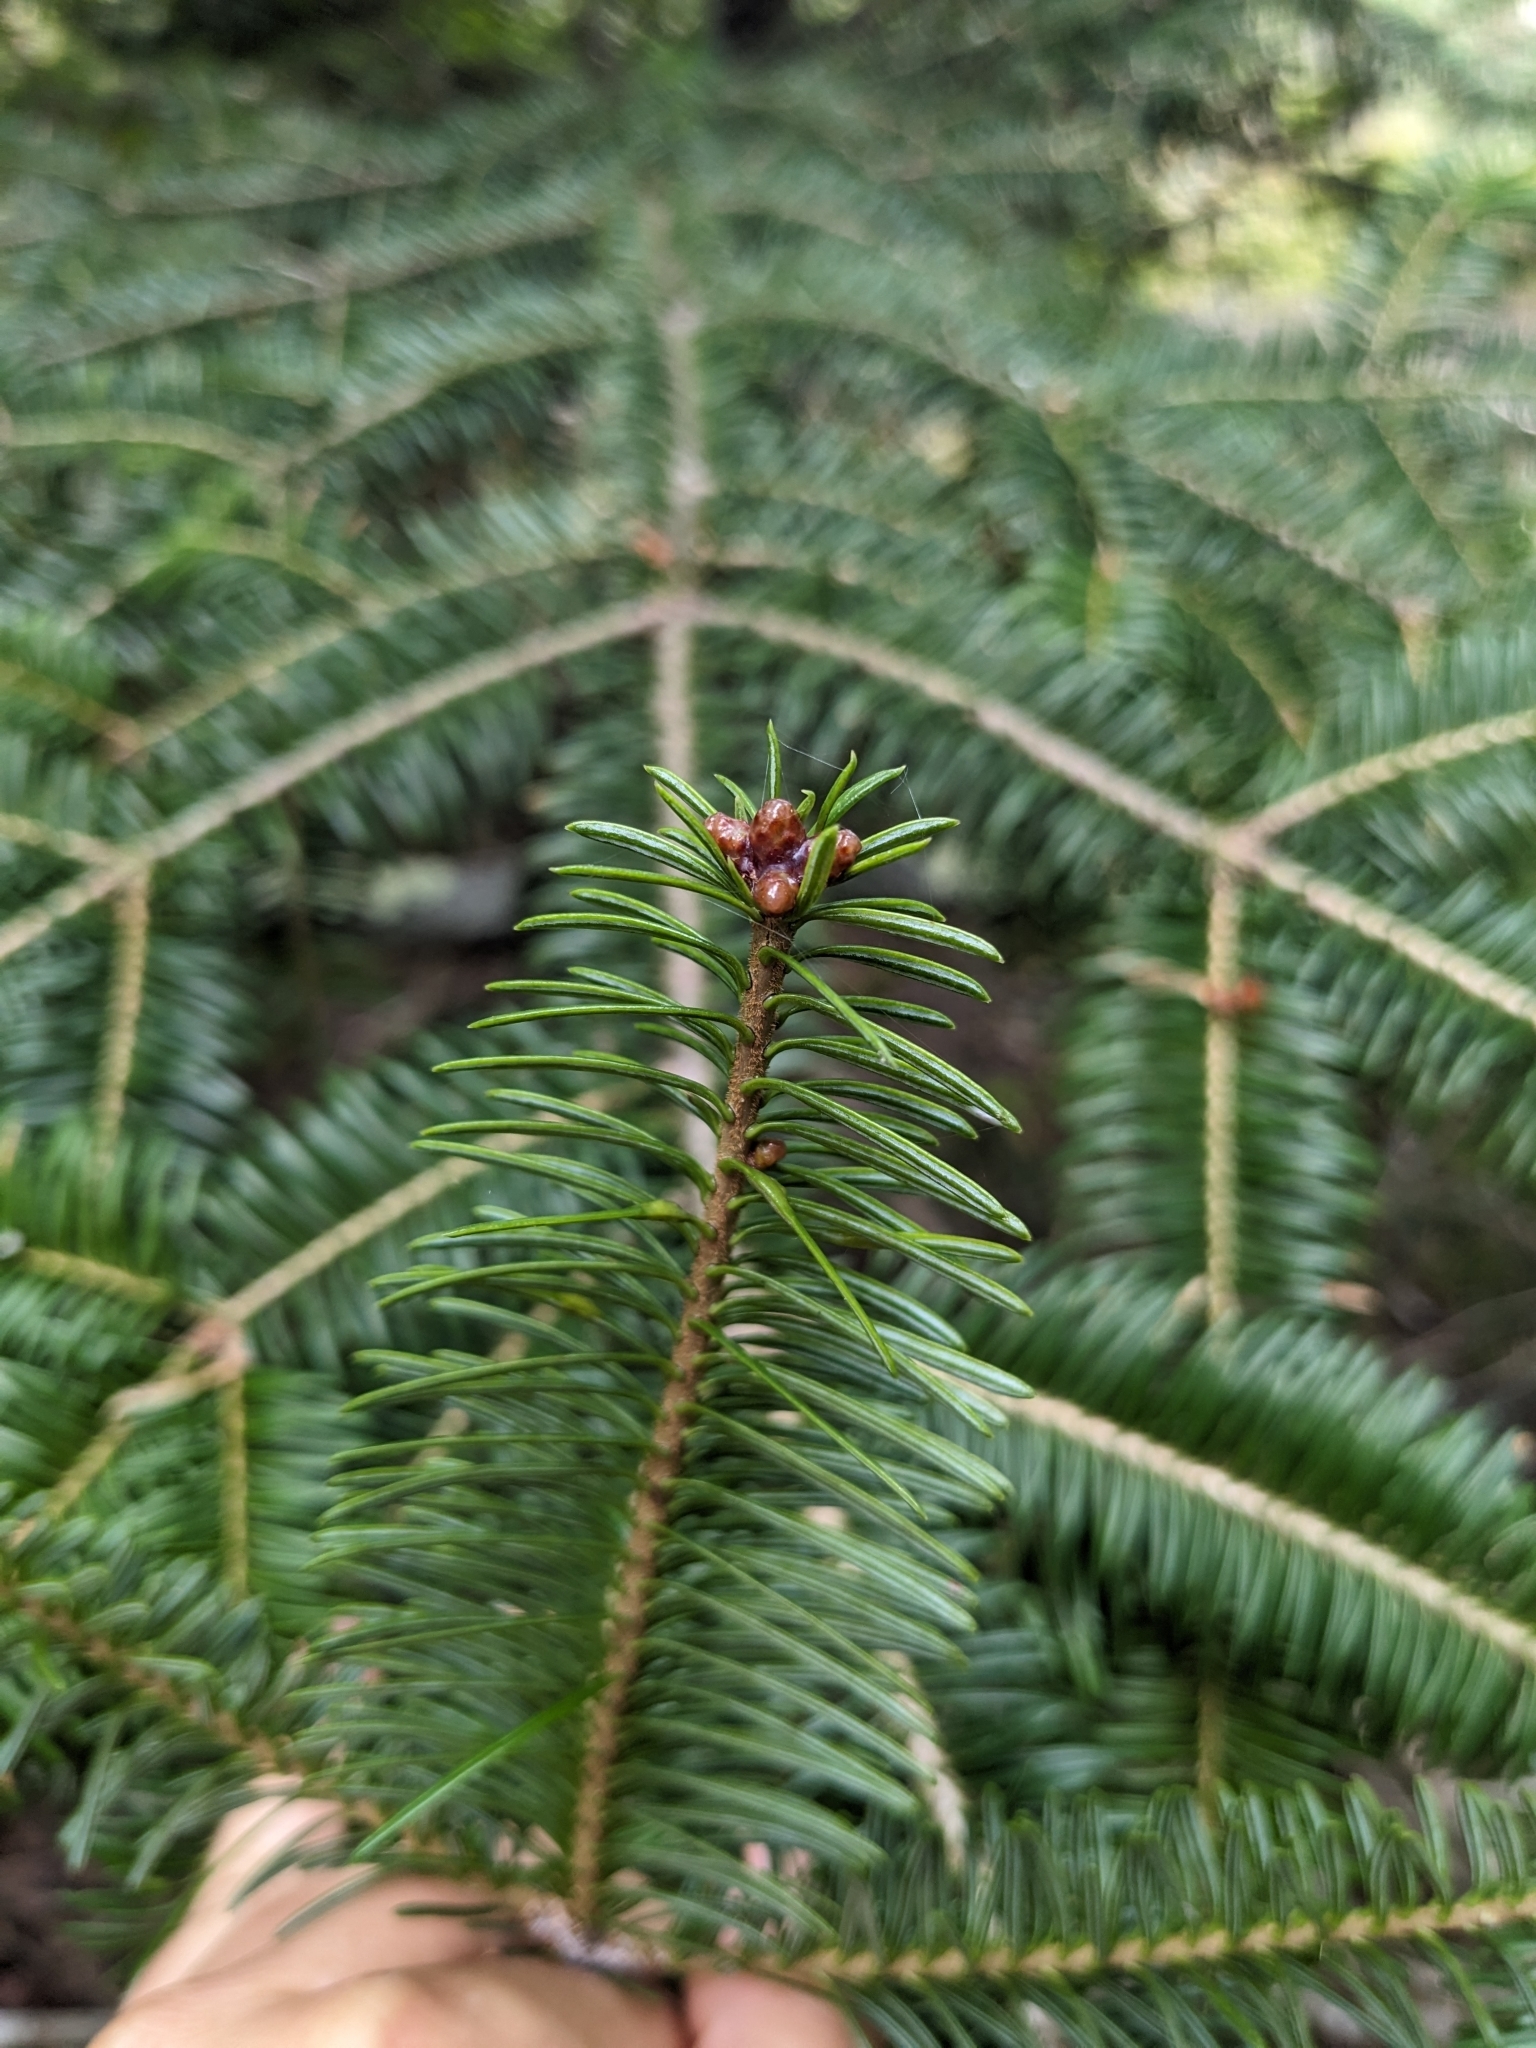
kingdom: Plantae
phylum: Tracheophyta
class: Pinopsida
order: Pinales
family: Pinaceae
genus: Abies
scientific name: Abies balsamea
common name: Balsam fir
